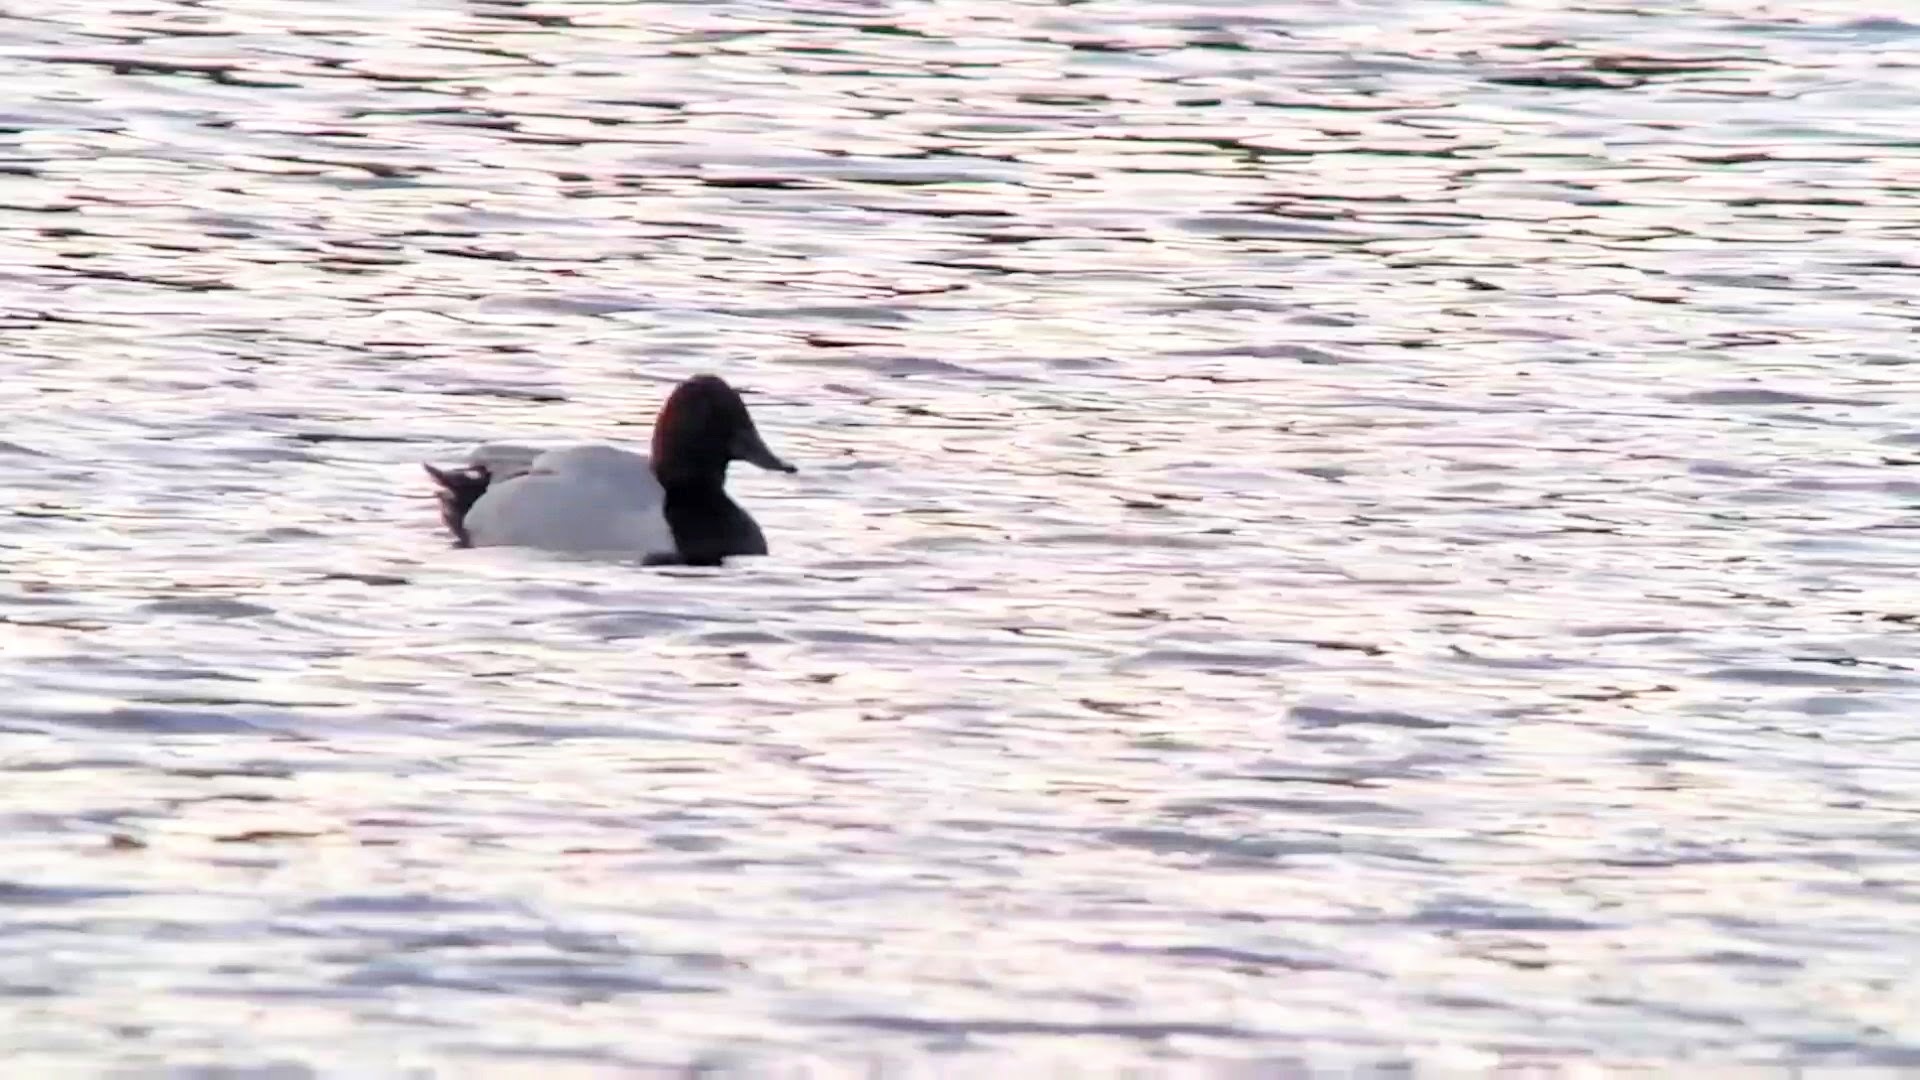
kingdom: Animalia
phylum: Chordata
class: Aves
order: Anseriformes
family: Anatidae
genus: Aythya
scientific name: Aythya valisineria
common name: Canvasback
